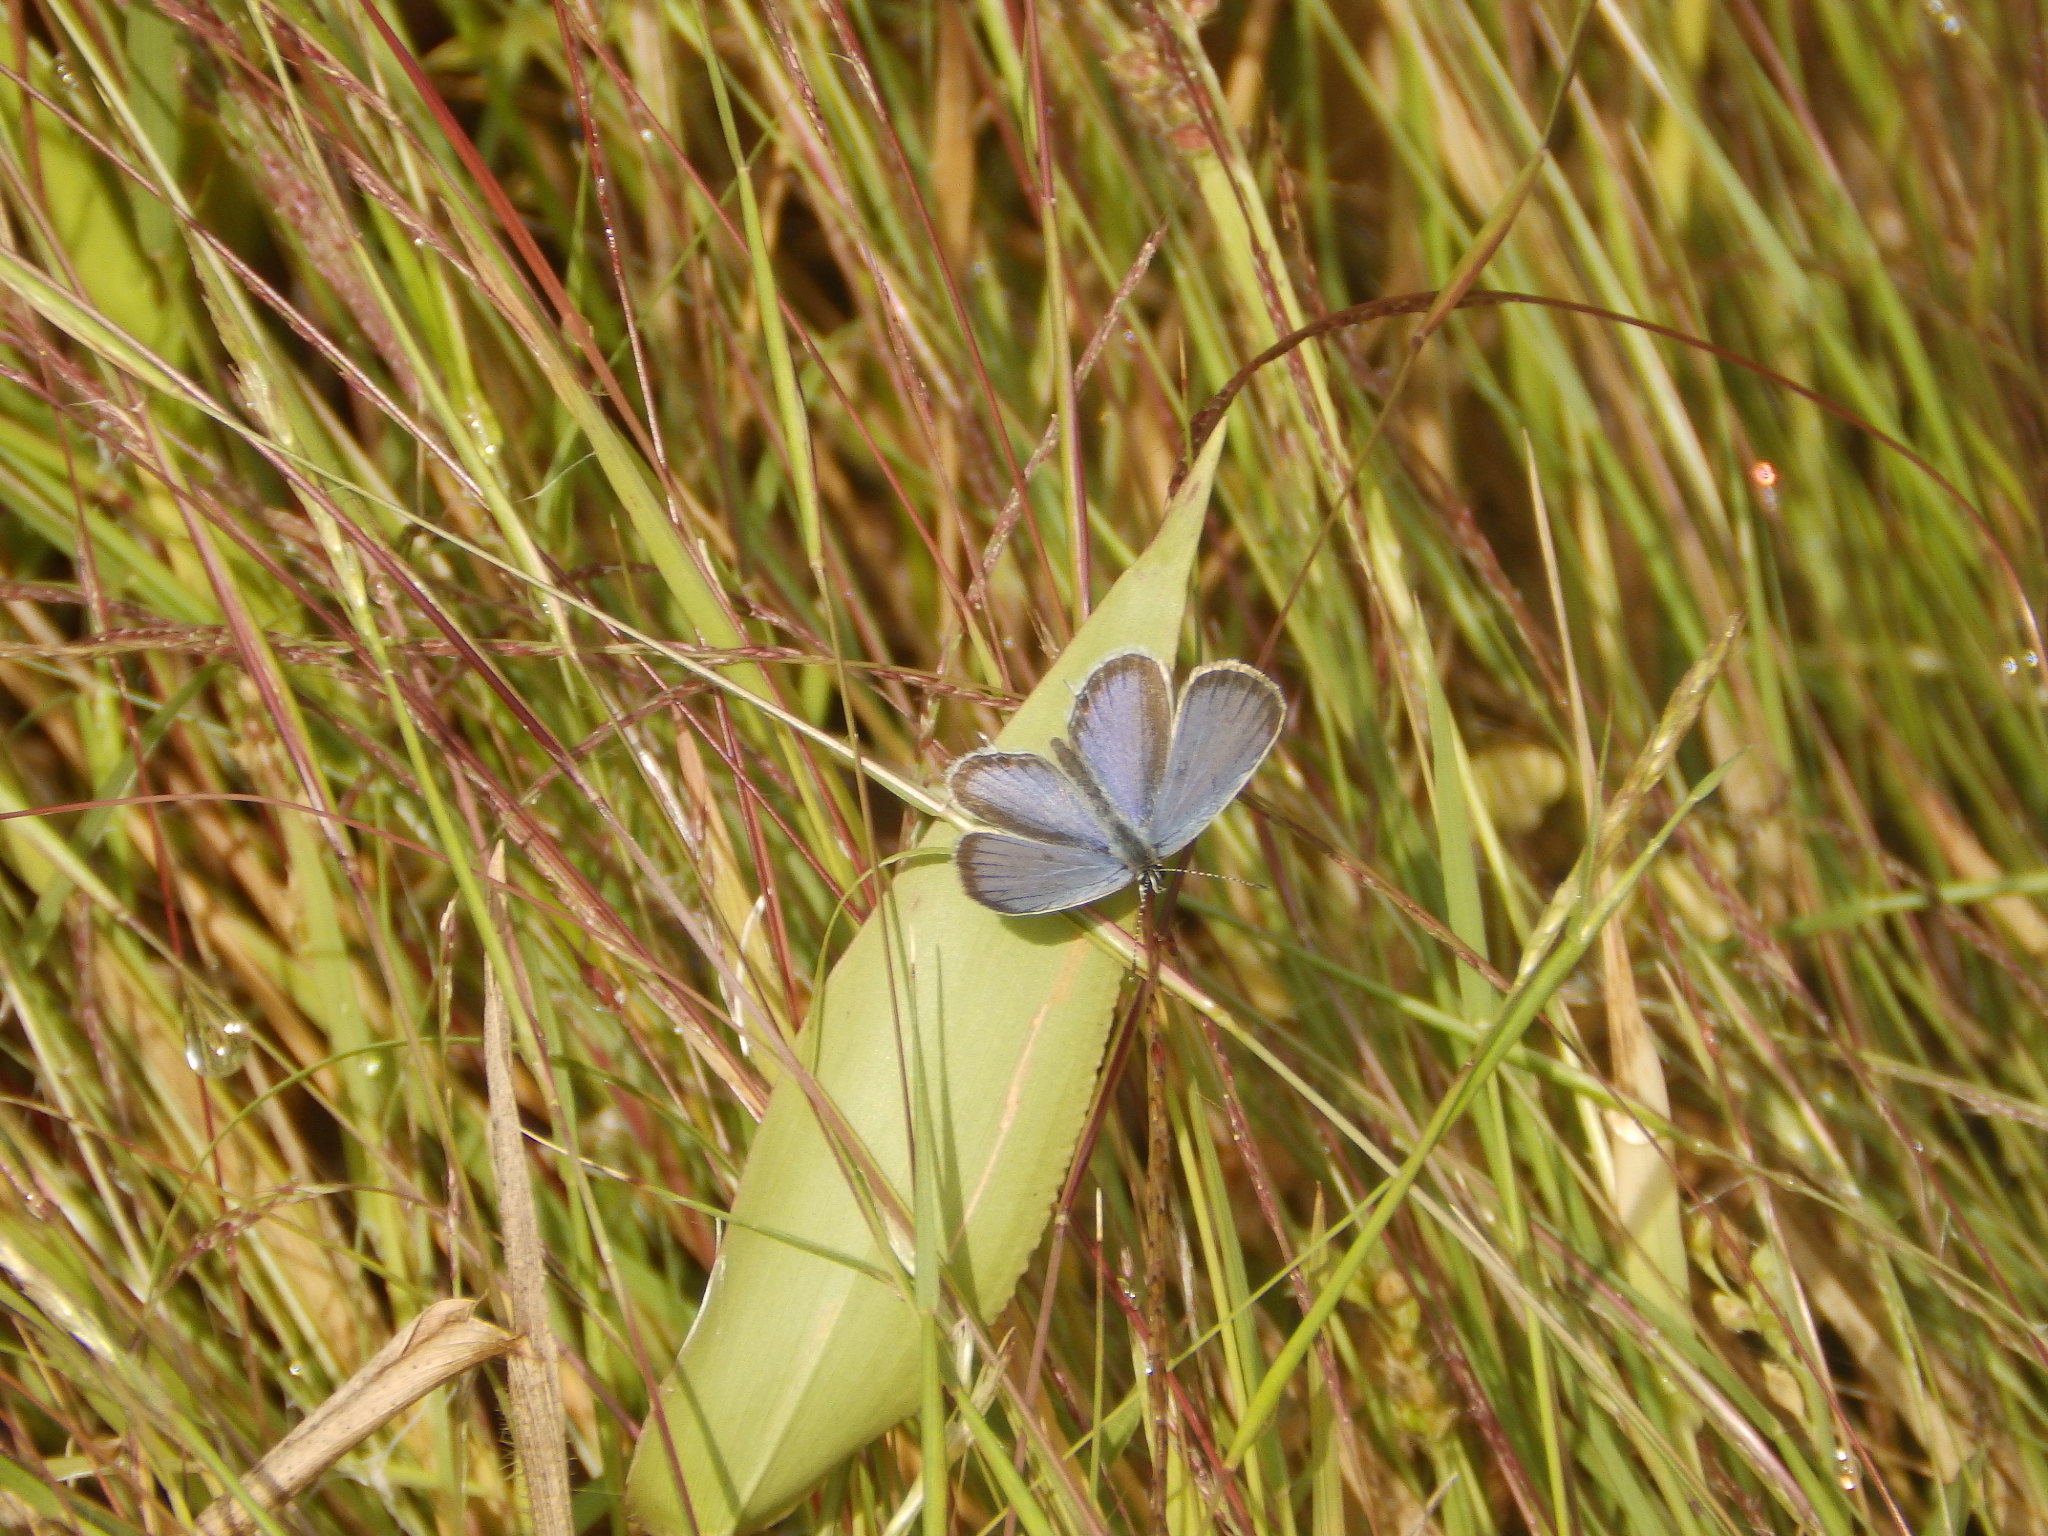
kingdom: Animalia
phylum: Arthropoda
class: Insecta
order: Lepidoptera
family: Lycaenidae
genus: Elkalyce
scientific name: Elkalyce comyntas
